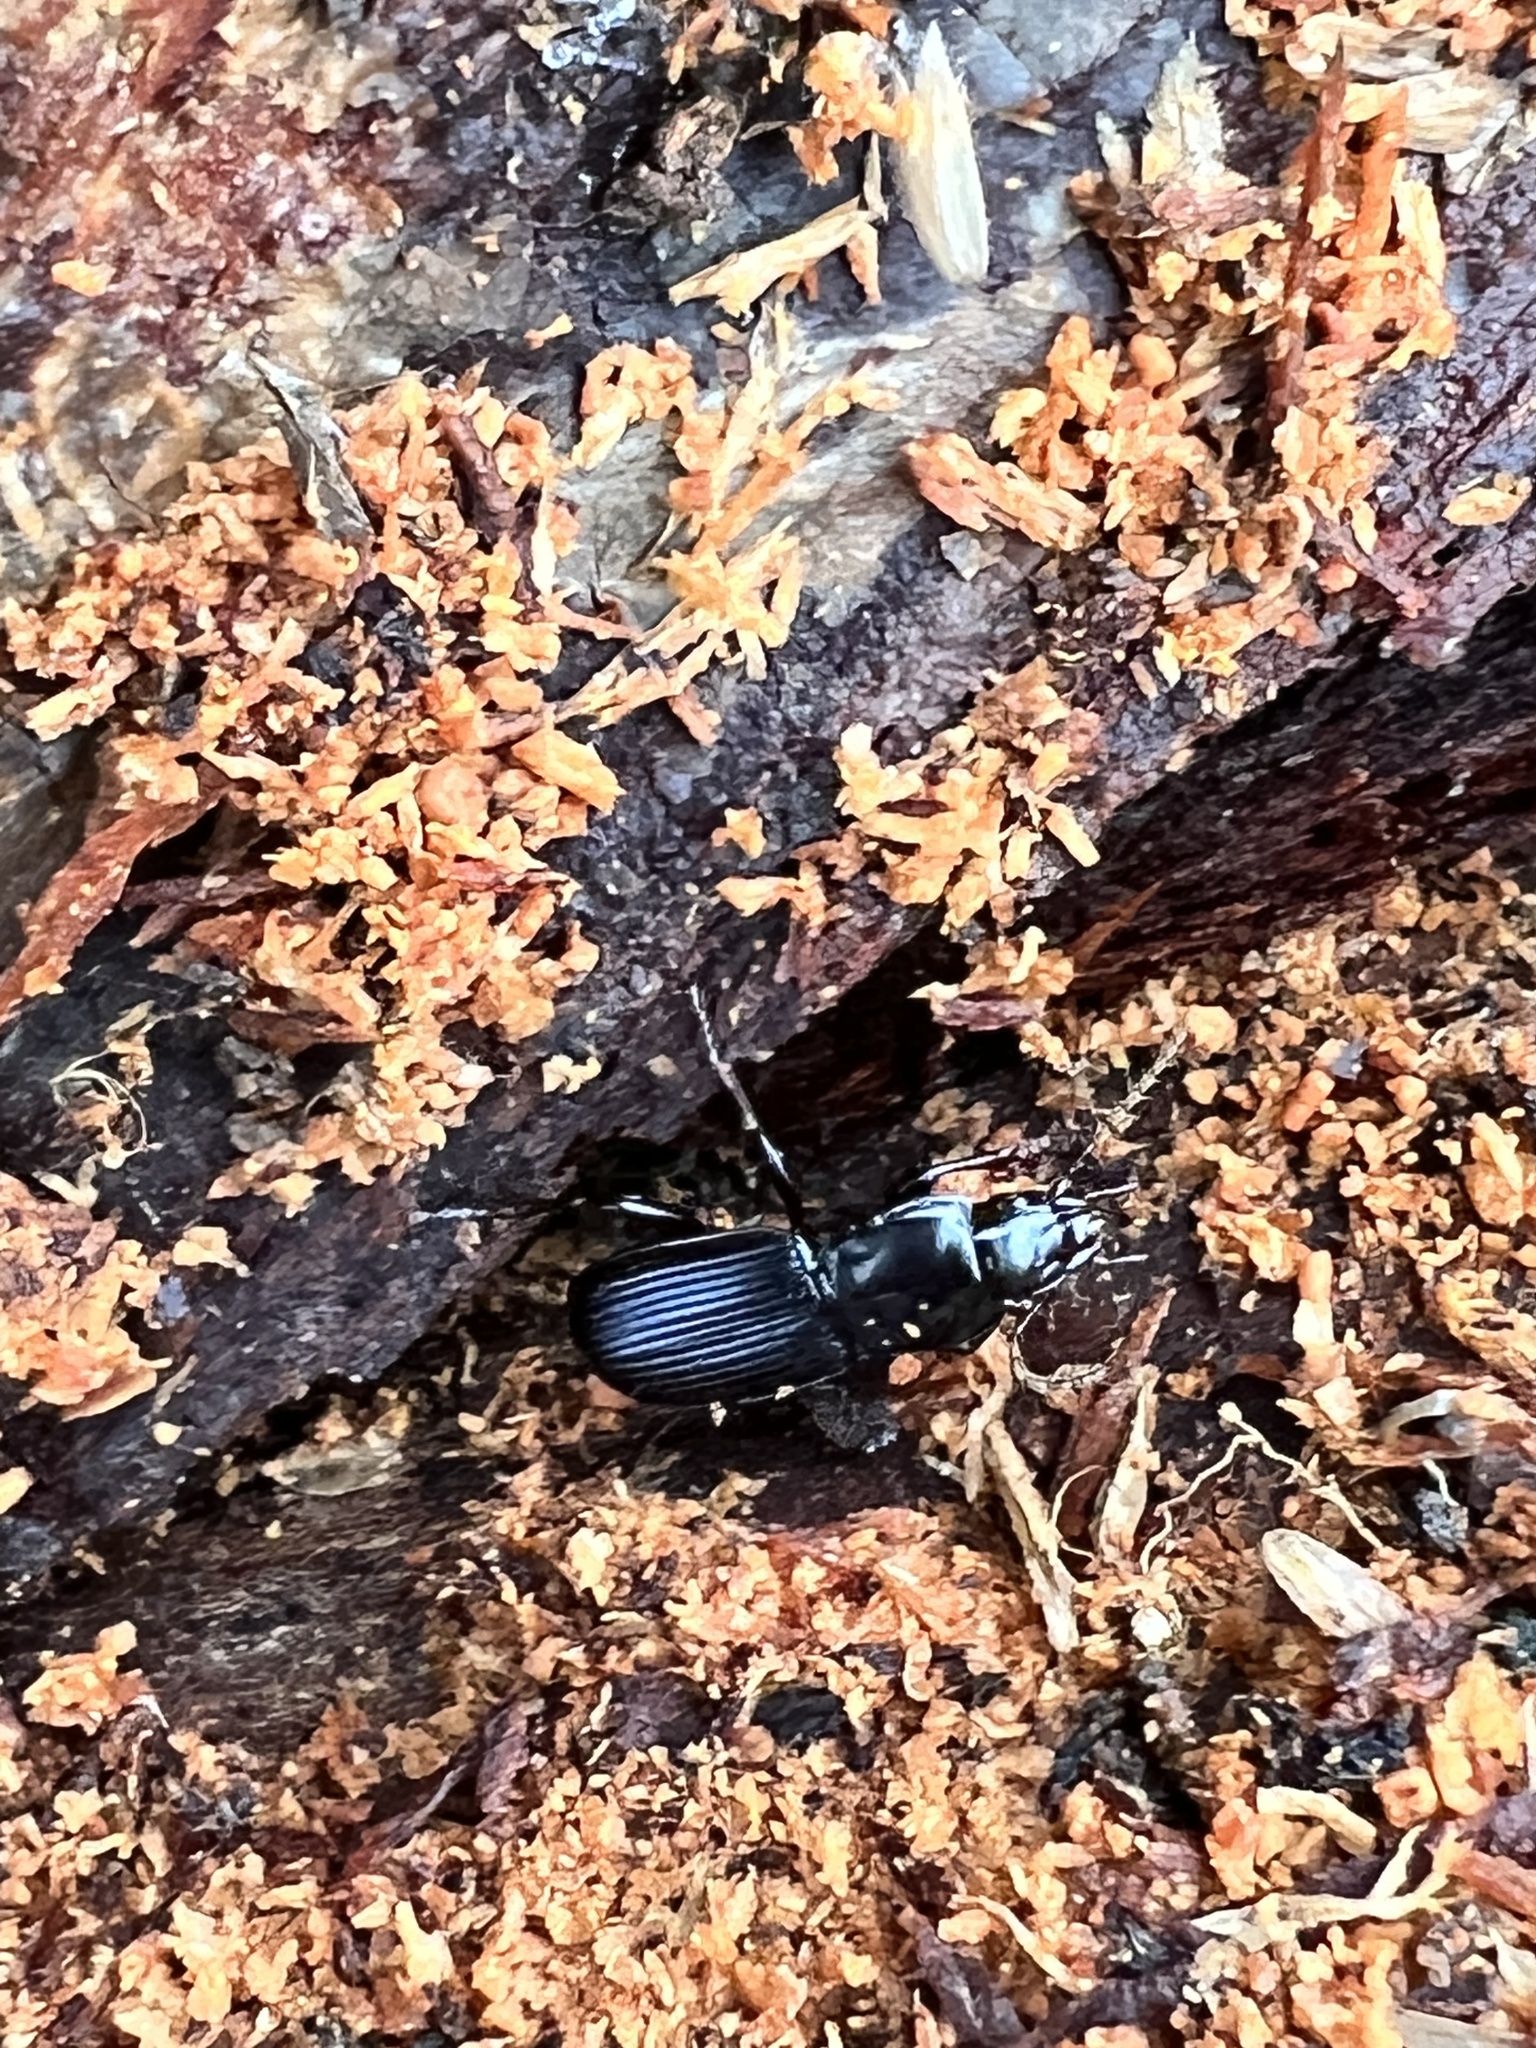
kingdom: Animalia
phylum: Arthropoda
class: Insecta
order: Coleoptera
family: Carabidae
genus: Pterostichus
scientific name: Pterostichus amethystinus
